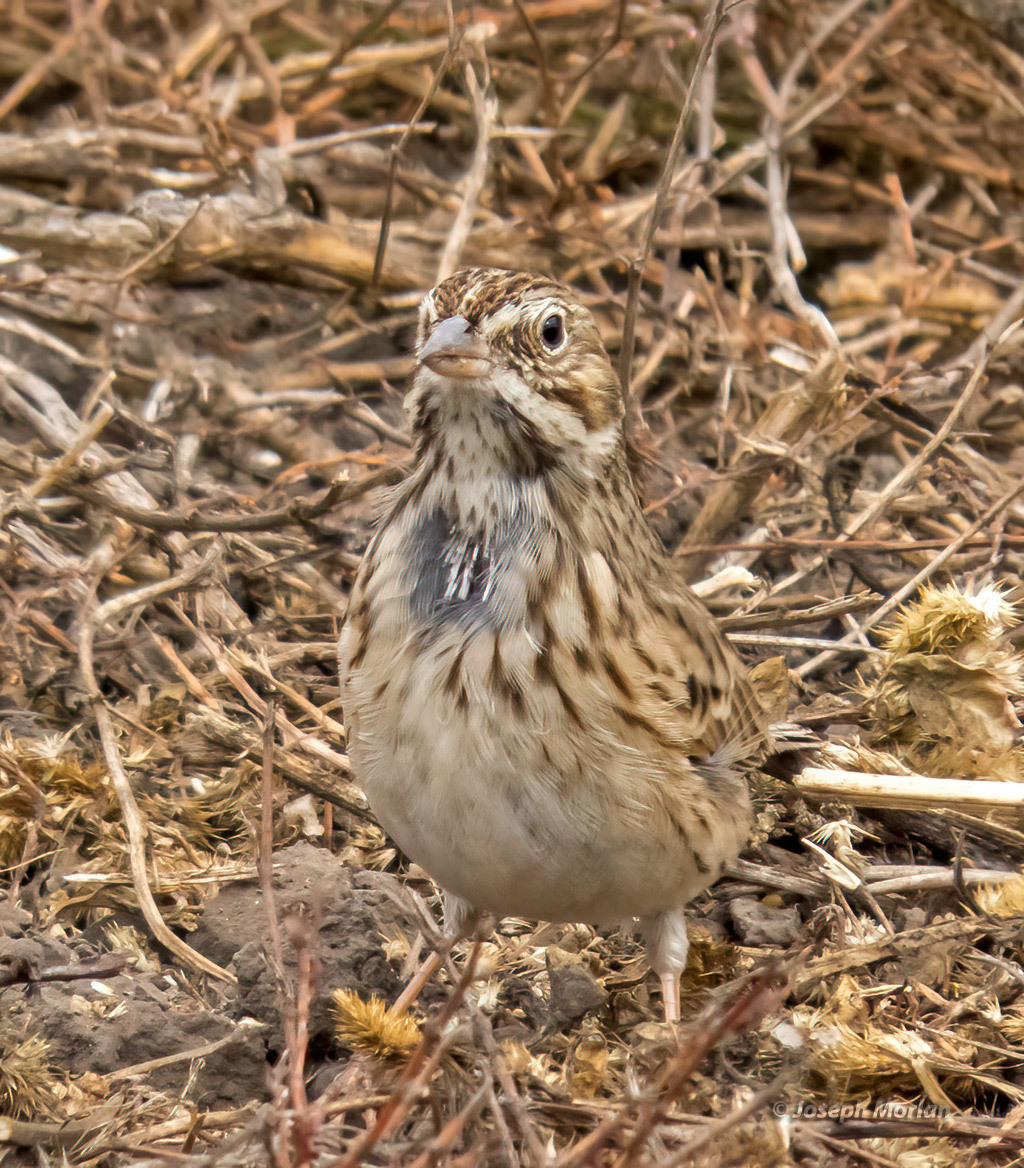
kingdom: Animalia
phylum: Chordata
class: Aves
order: Passeriformes
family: Passerellidae
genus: Pooecetes
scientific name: Pooecetes gramineus
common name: Vesper sparrow
